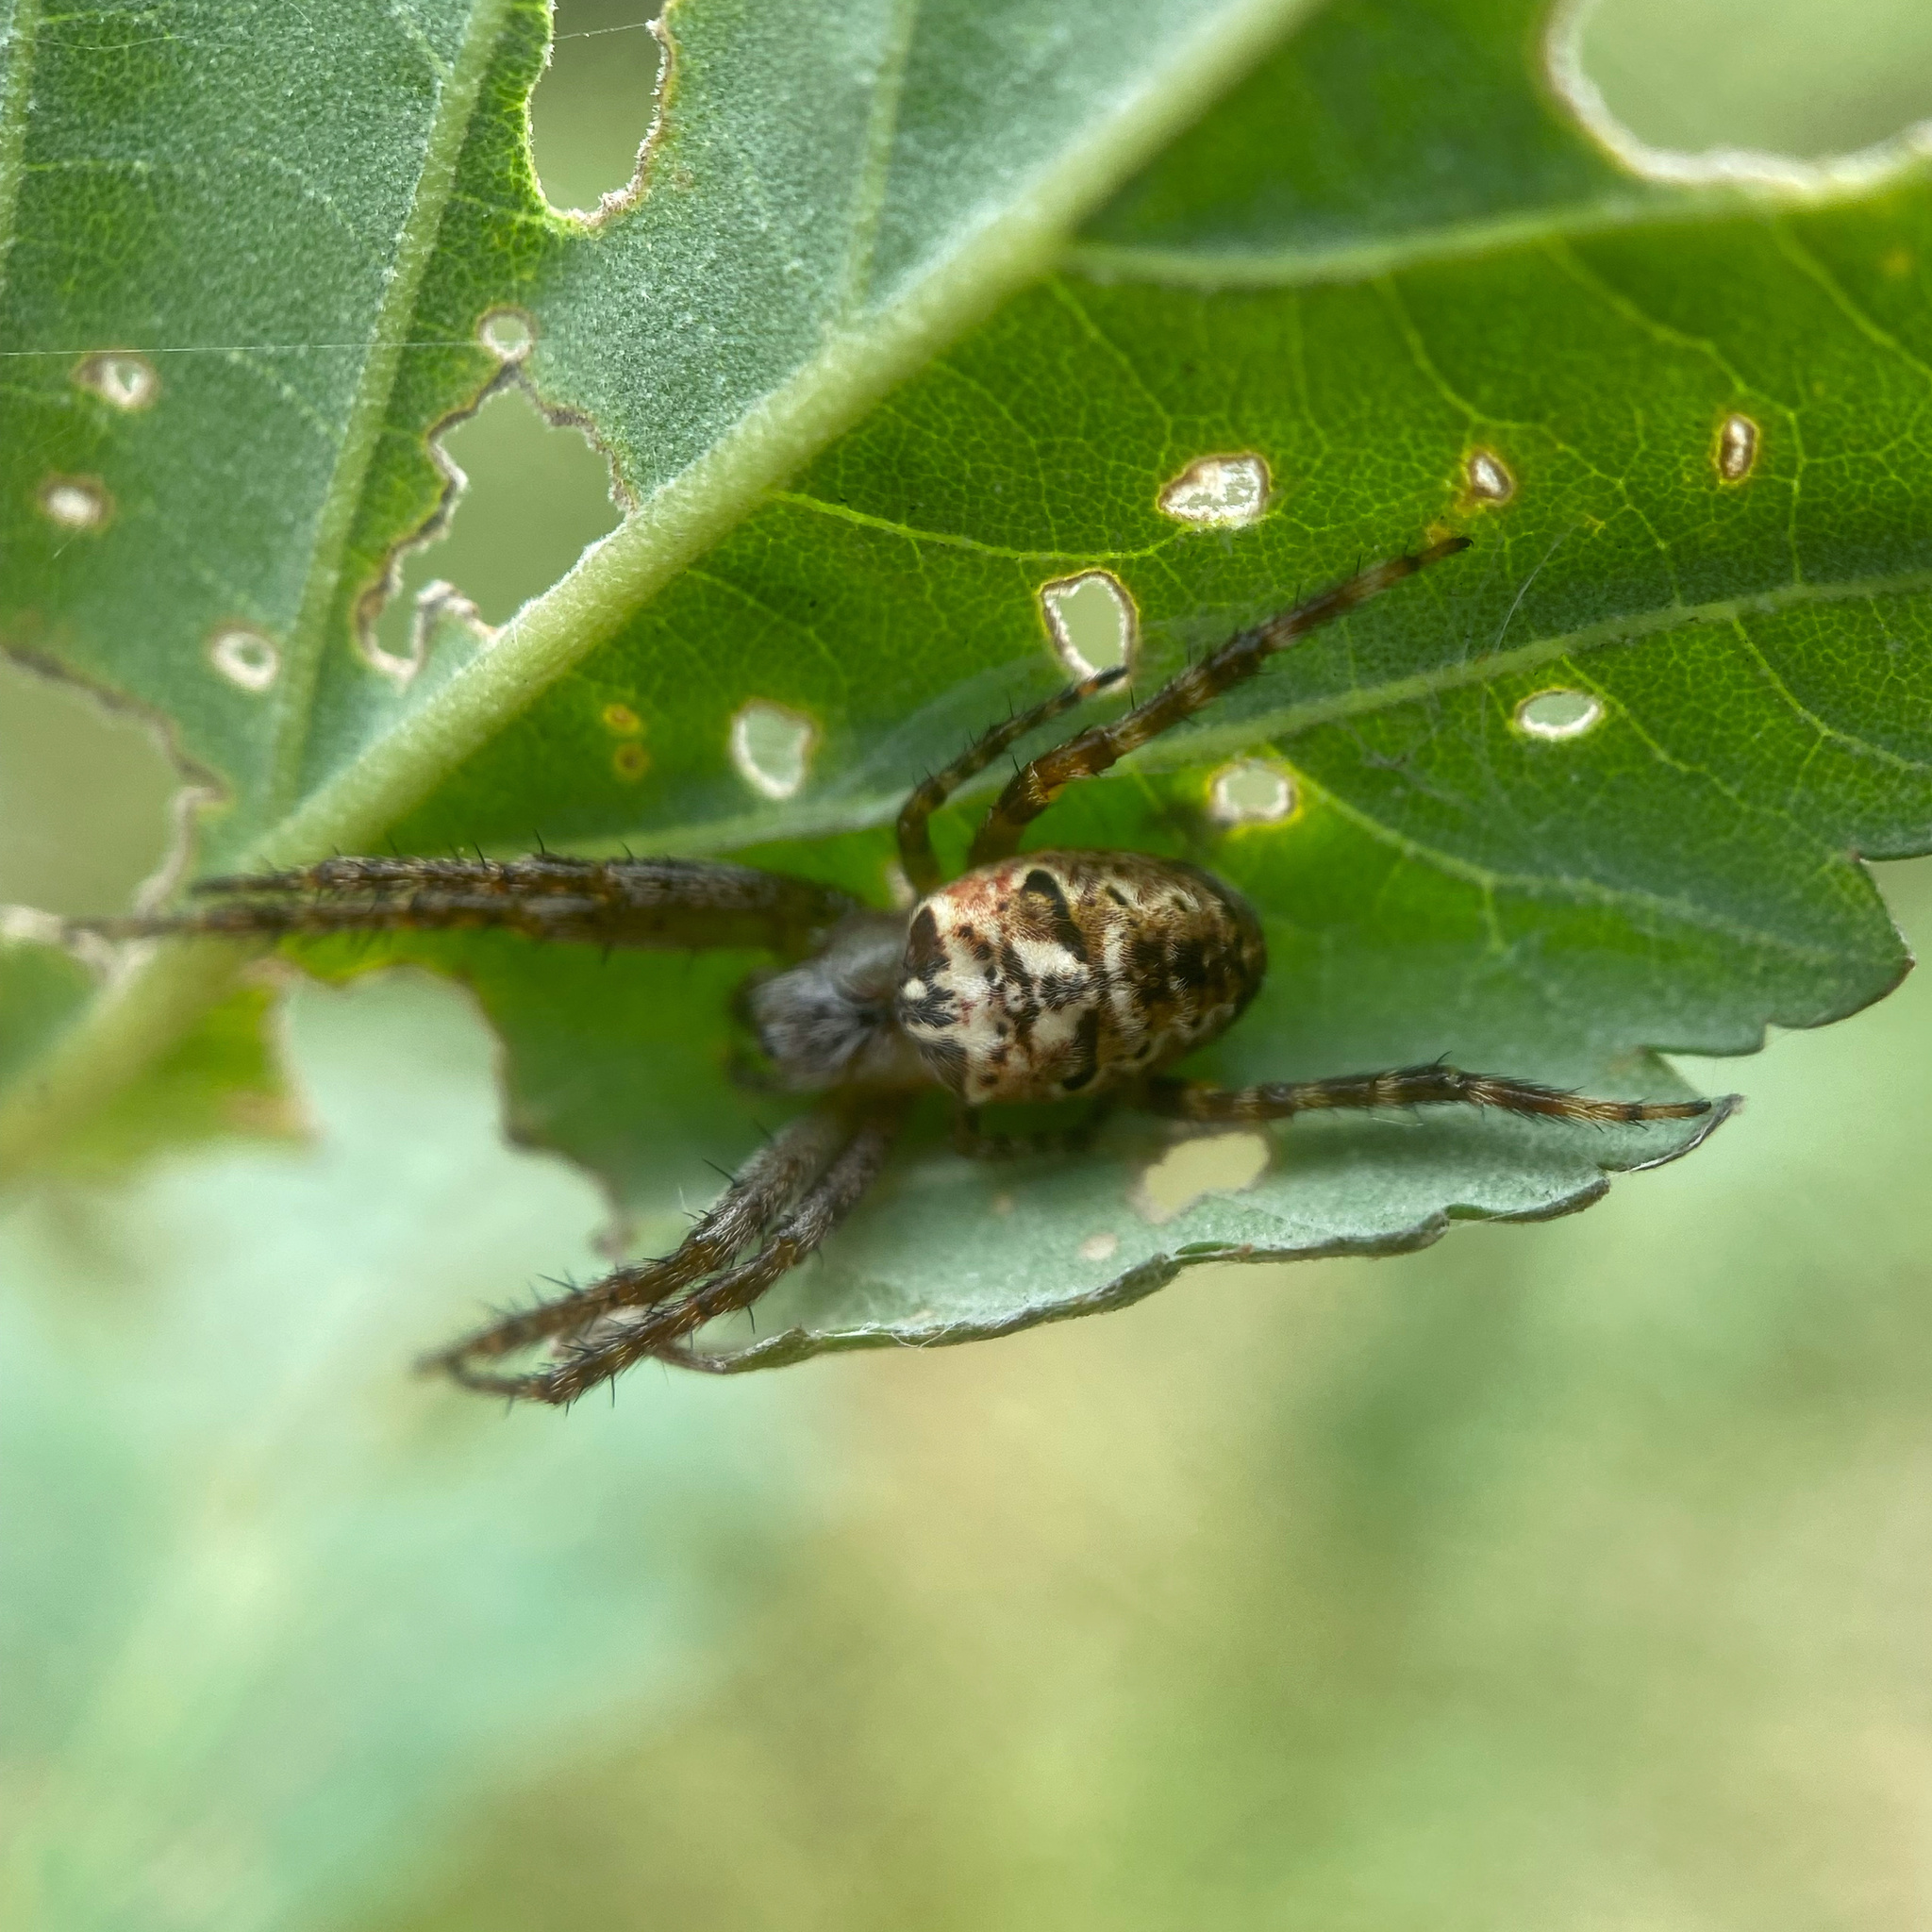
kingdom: Animalia
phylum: Arthropoda
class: Arachnida
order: Araneae
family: Araneidae
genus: Plebs
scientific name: Plebs eburnus
